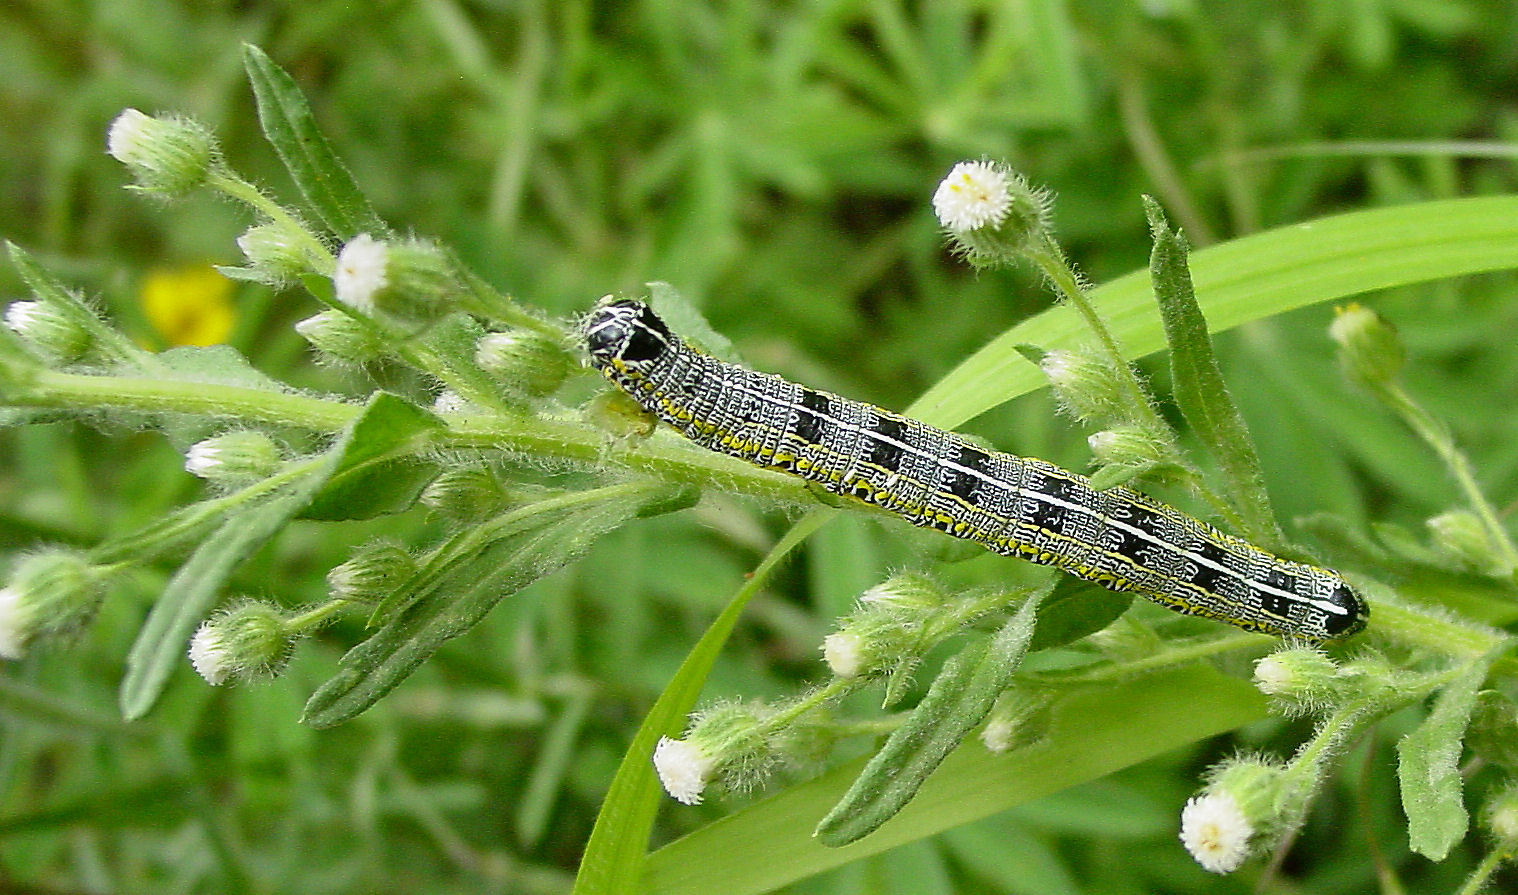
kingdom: Plantae
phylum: Tracheophyta
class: Magnoliopsida
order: Asterales
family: Asteraceae
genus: Laennecia
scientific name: Laennecia schiedeana
